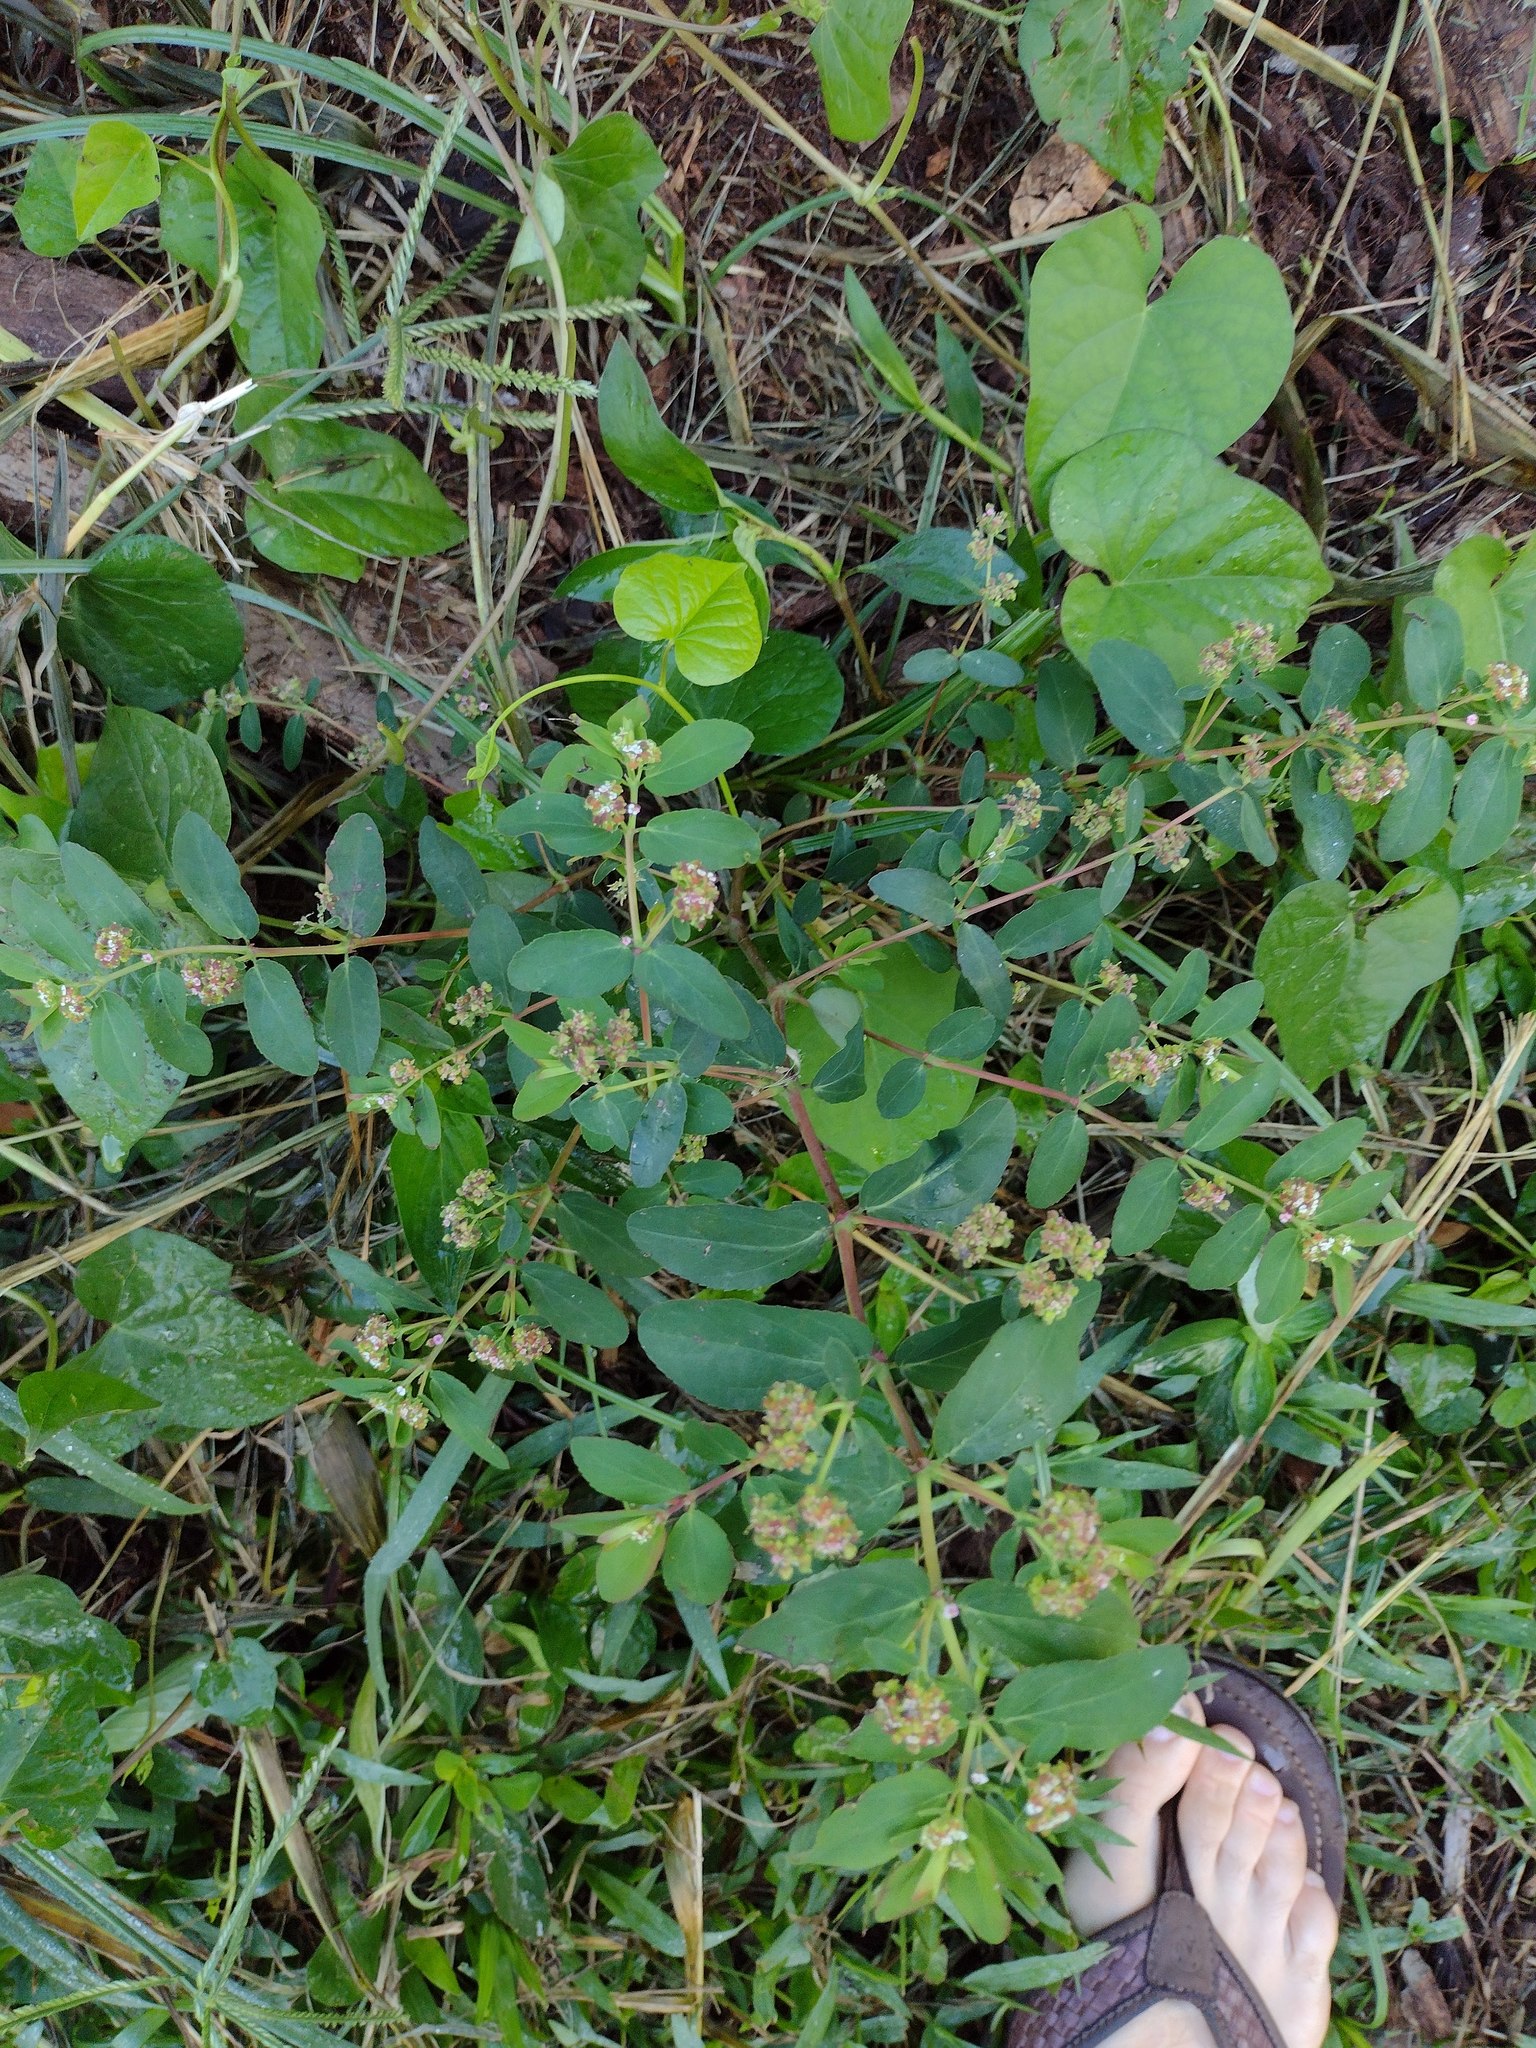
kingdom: Plantae
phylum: Tracheophyta
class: Magnoliopsida
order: Malpighiales
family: Euphorbiaceae
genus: Euphorbia
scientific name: Euphorbia hypericifolia
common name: Graceful sandmat
